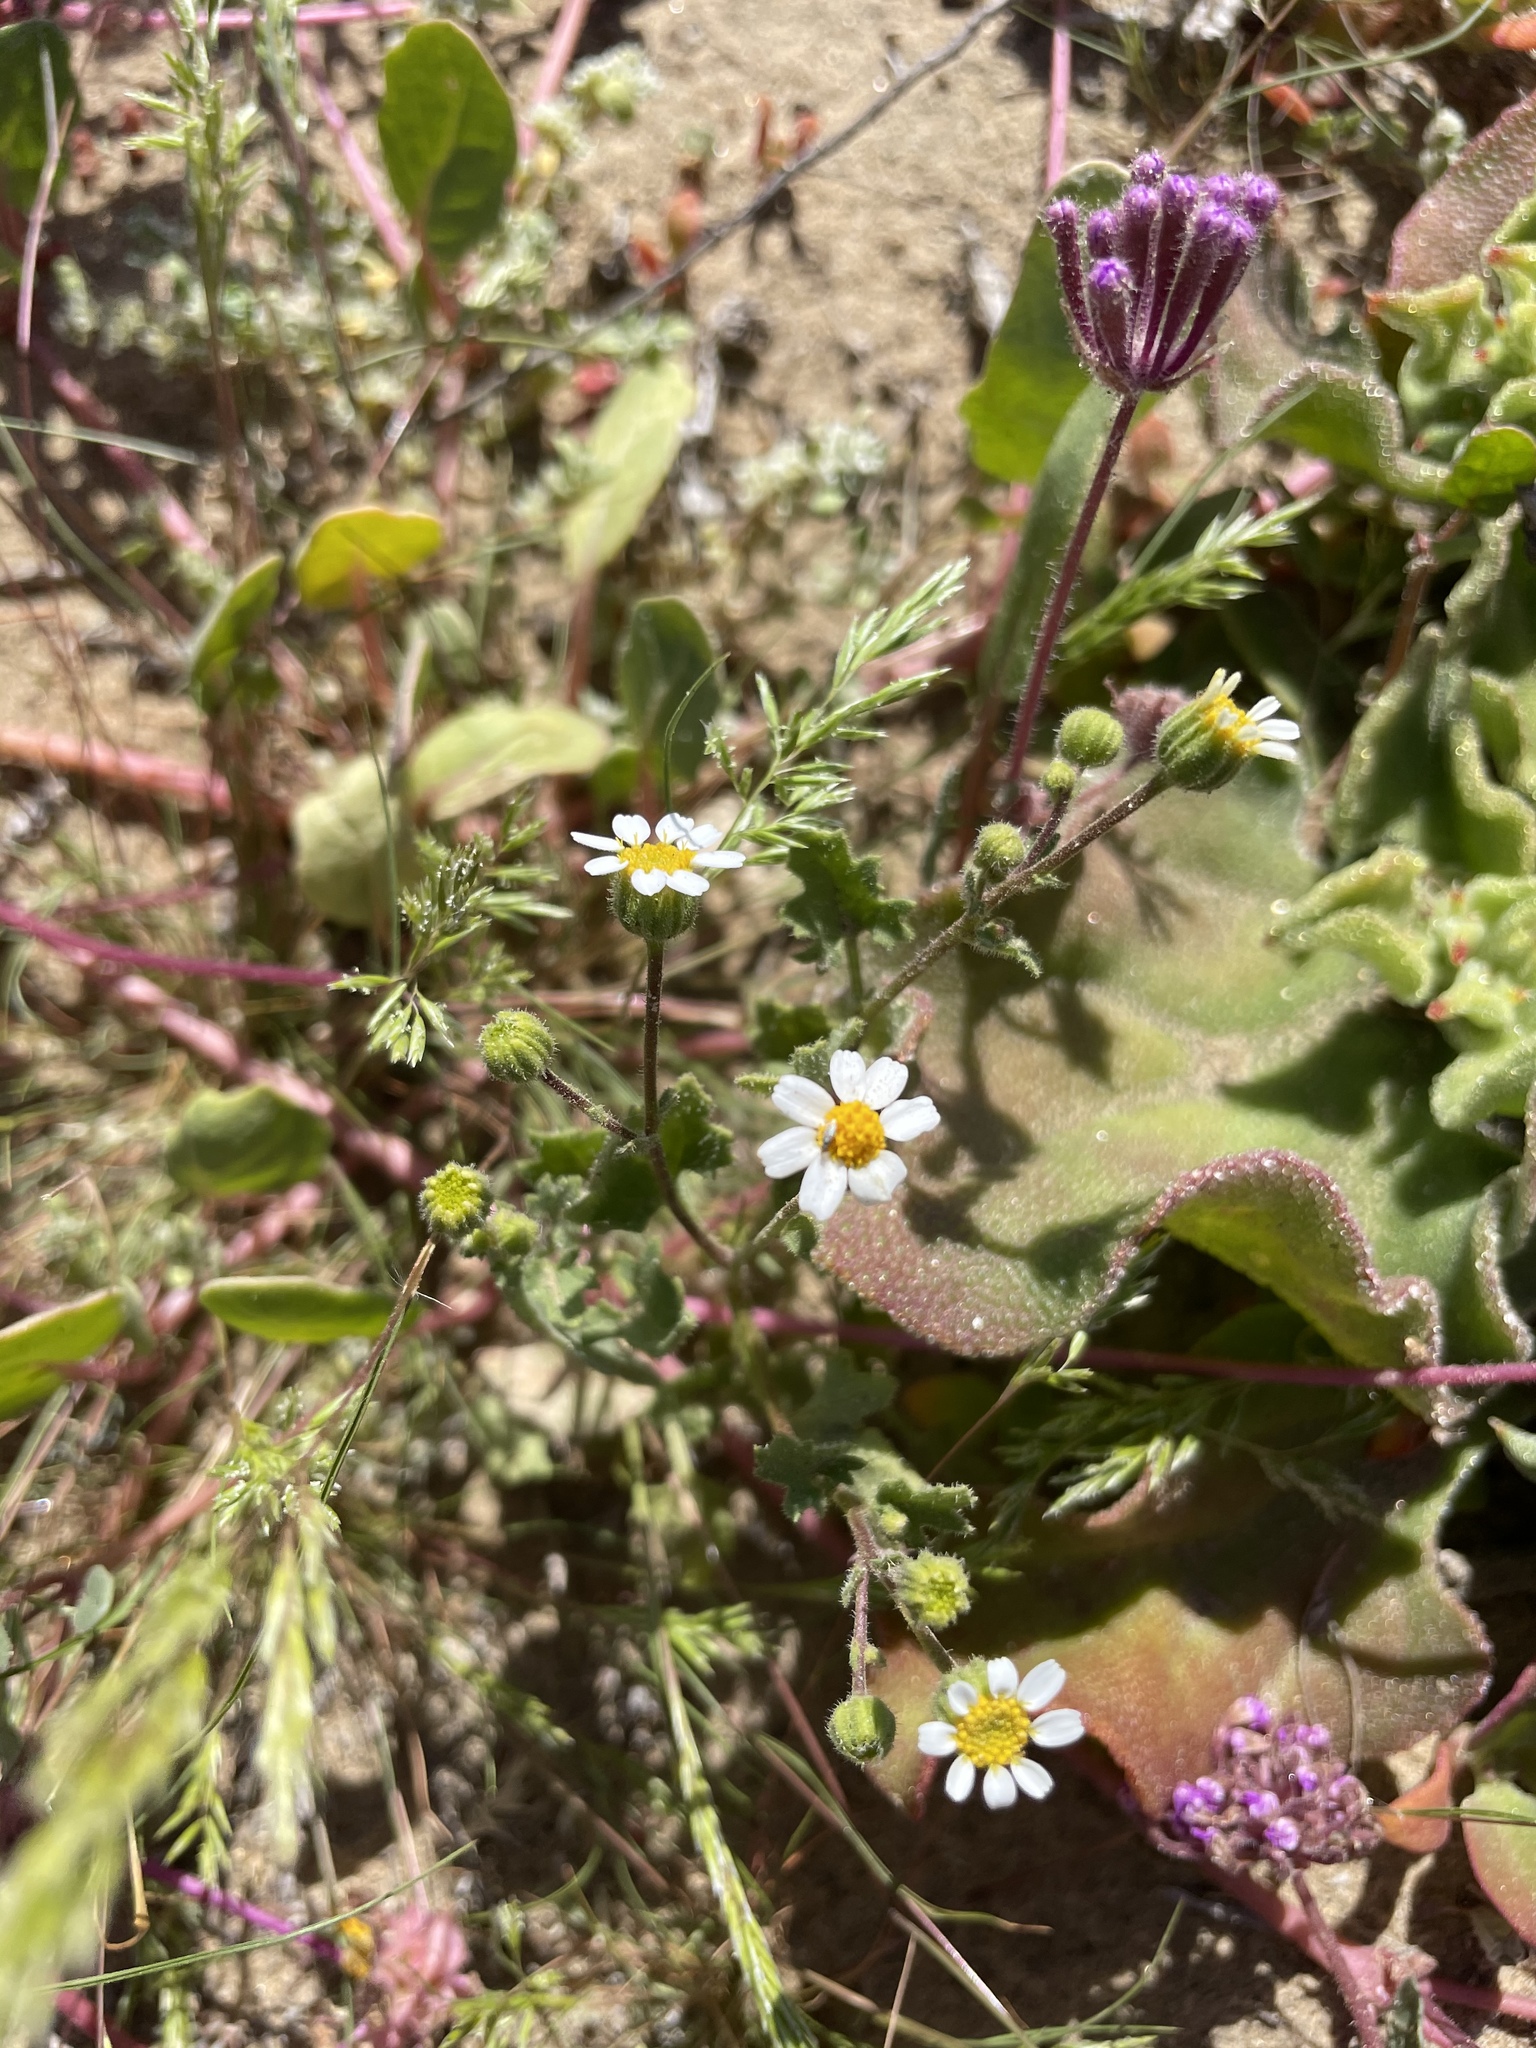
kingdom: Plantae
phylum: Tracheophyta
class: Magnoliopsida
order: Asterales
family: Asteraceae
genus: Laphamia
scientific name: Laphamia emoryi
